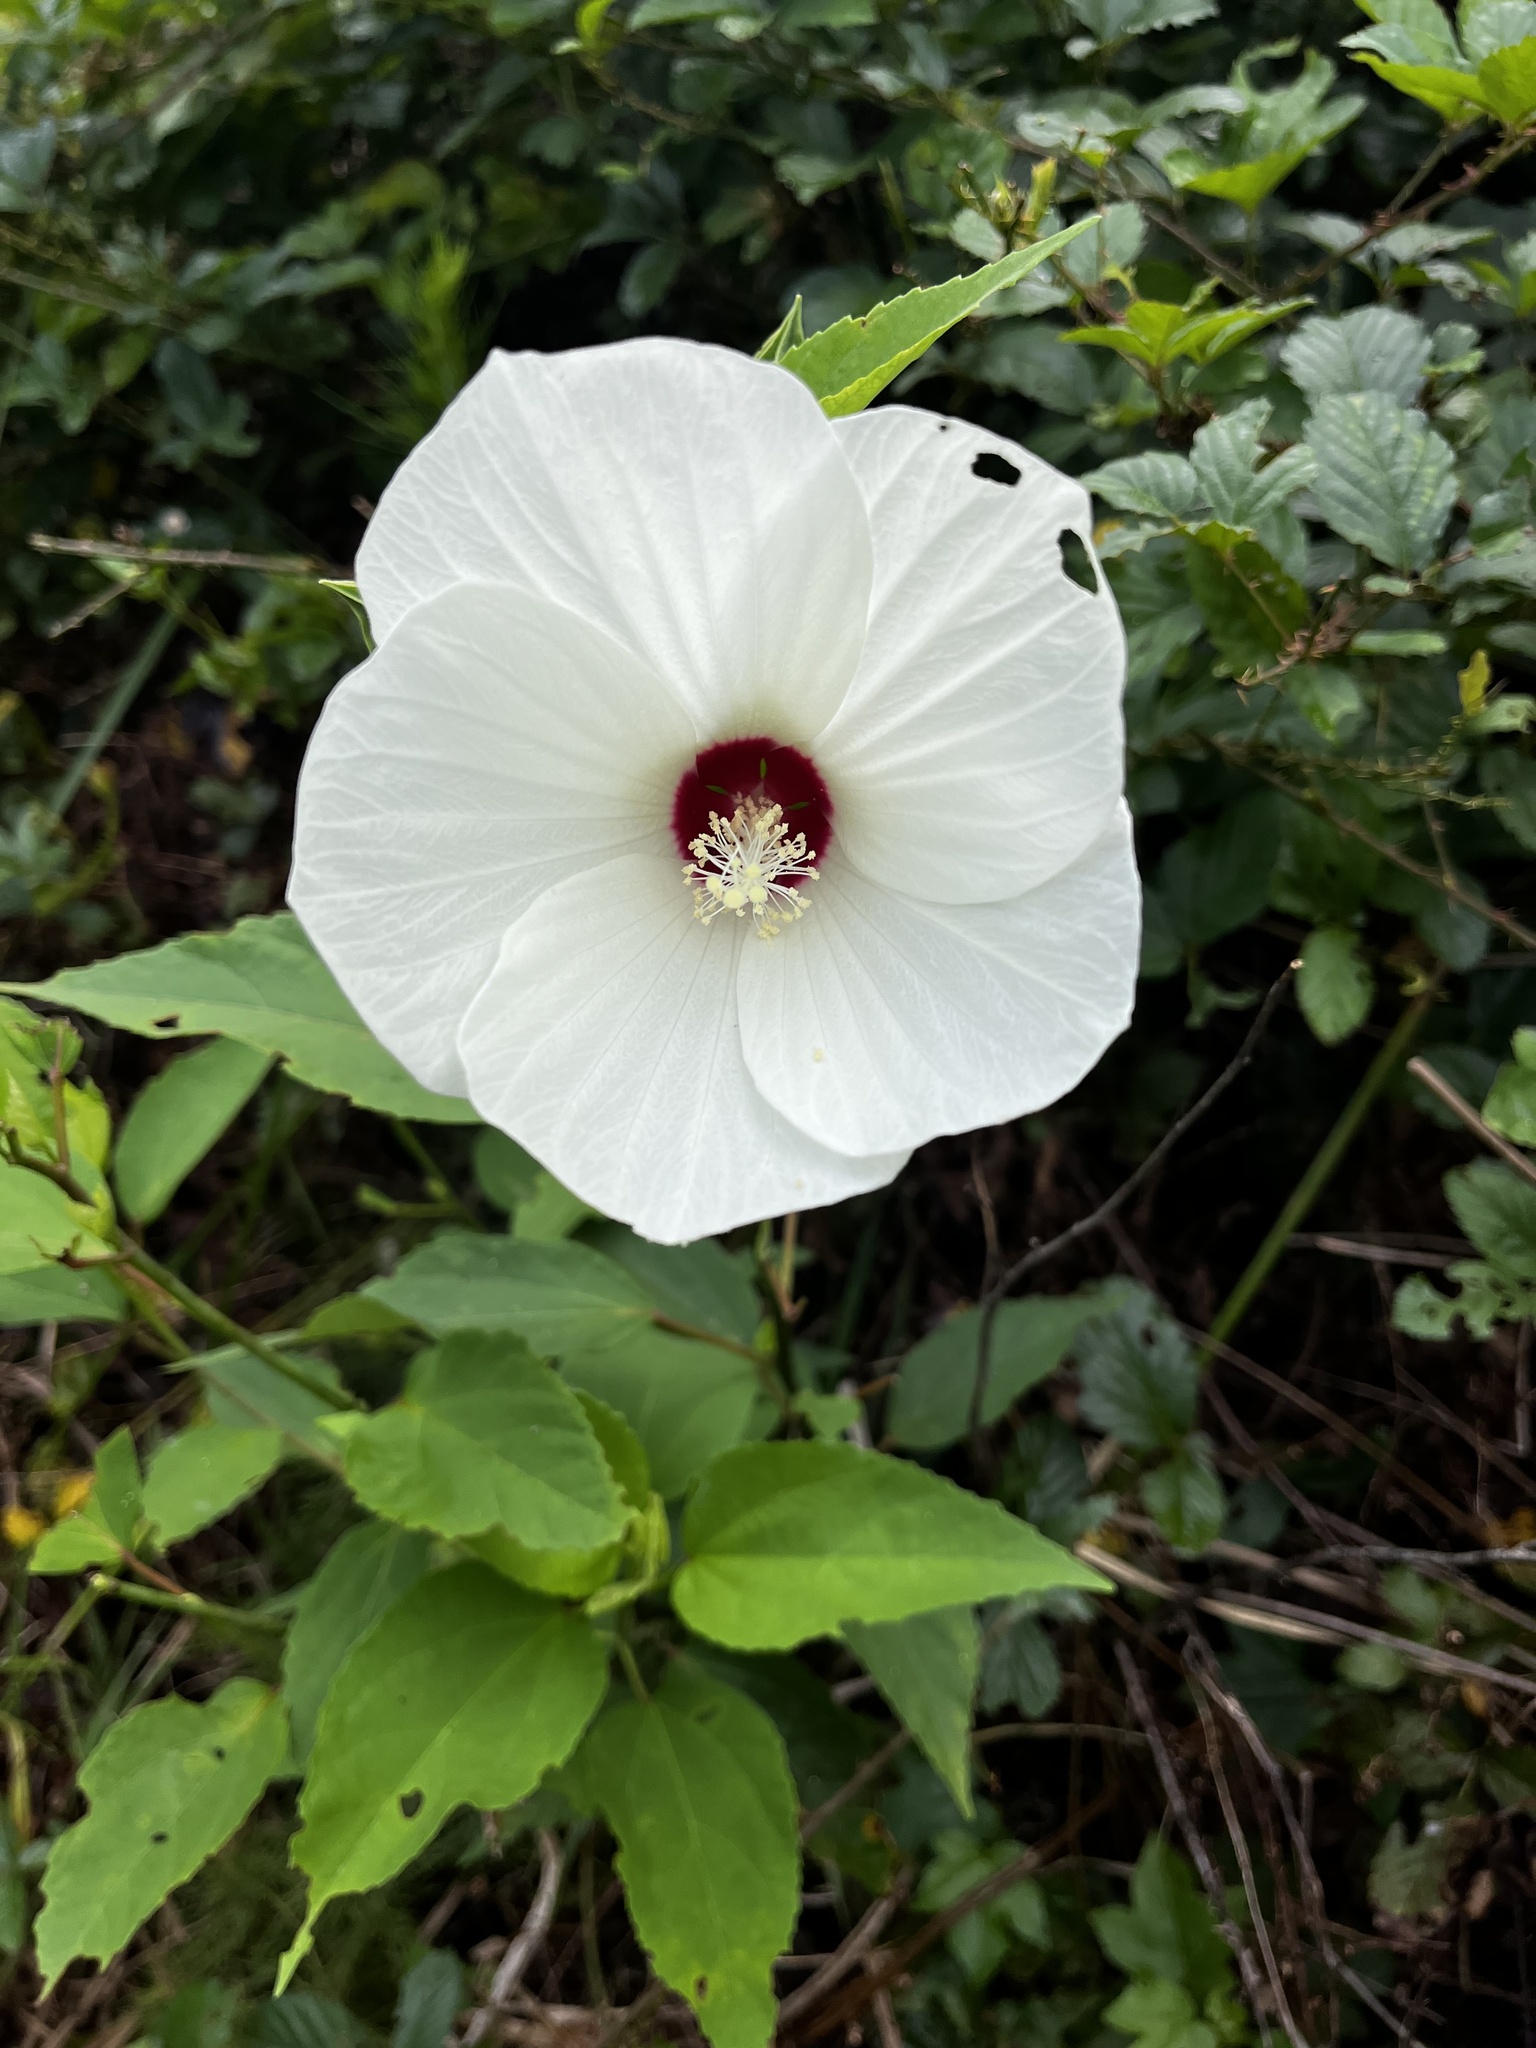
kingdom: Plantae
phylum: Tracheophyta
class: Magnoliopsida
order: Malvales
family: Malvaceae
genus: Hibiscus
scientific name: Hibiscus moscheutos
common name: Common rose-mallow
